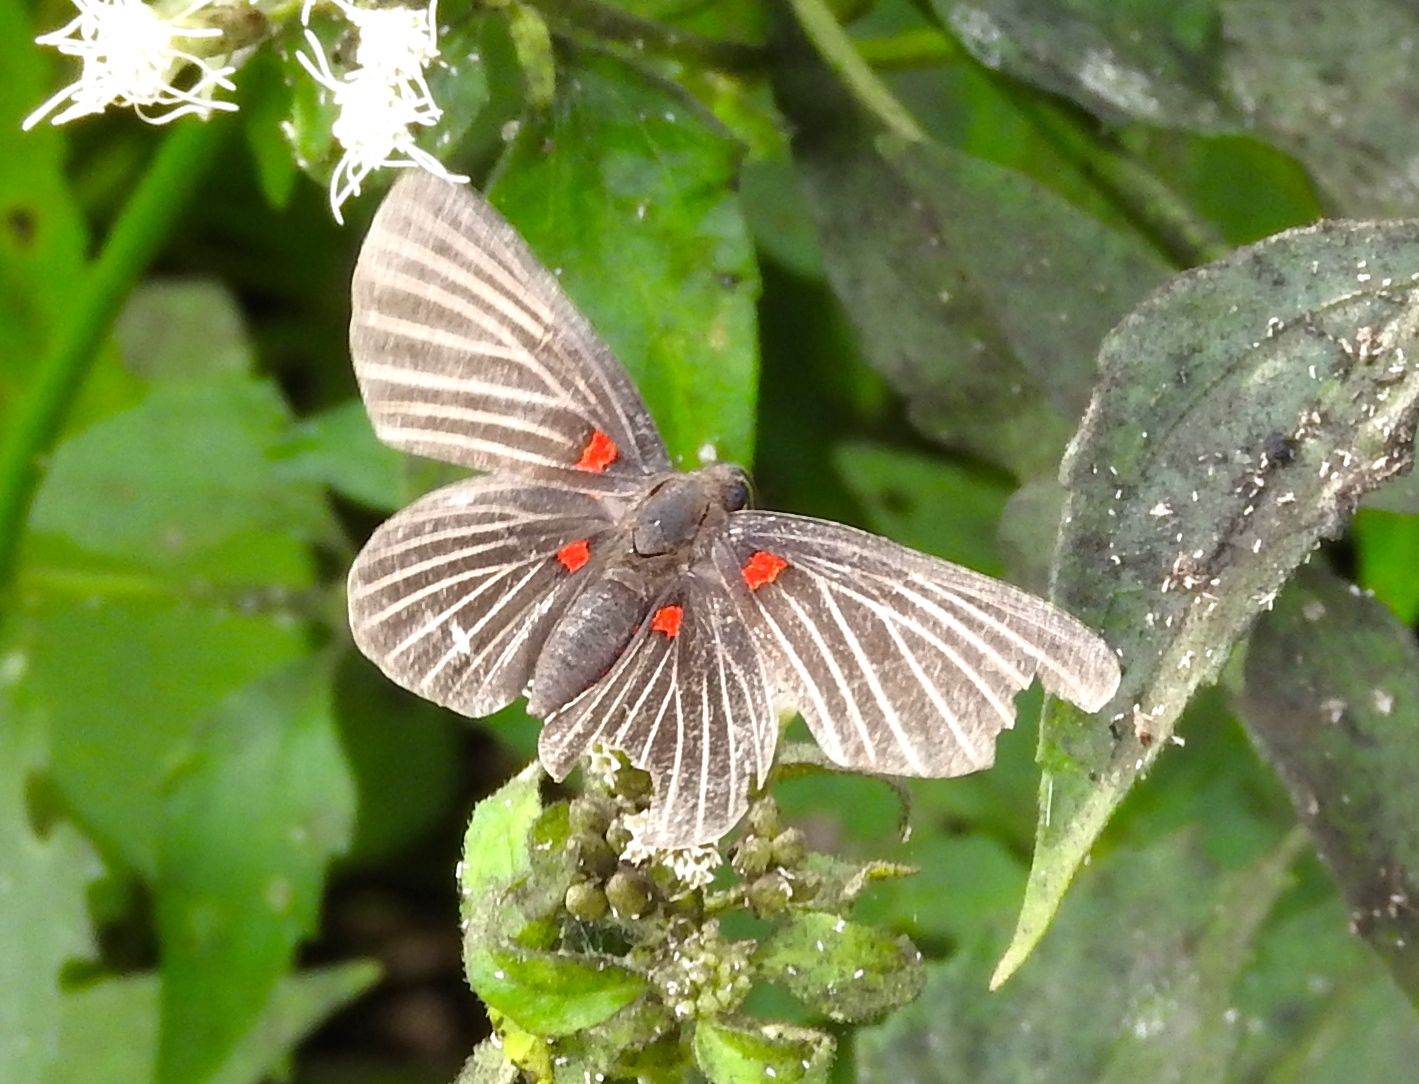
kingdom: Animalia
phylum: Arthropoda
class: Insecta
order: Lepidoptera
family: Lycaenidae
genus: Melanis
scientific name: Melanis
